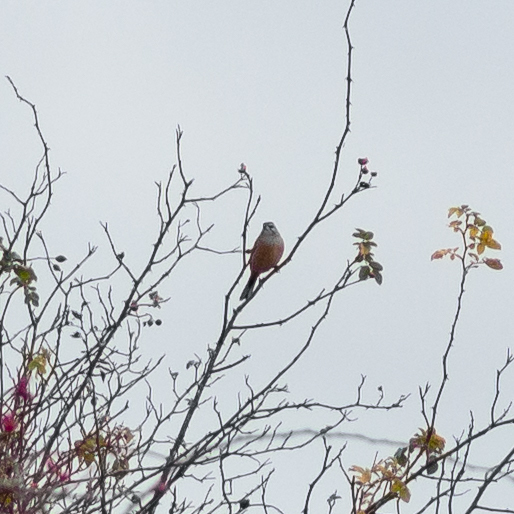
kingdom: Animalia
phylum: Chordata
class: Aves
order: Passeriformes
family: Emberizidae
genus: Emberiza
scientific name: Emberiza cia
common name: Rock bunting
